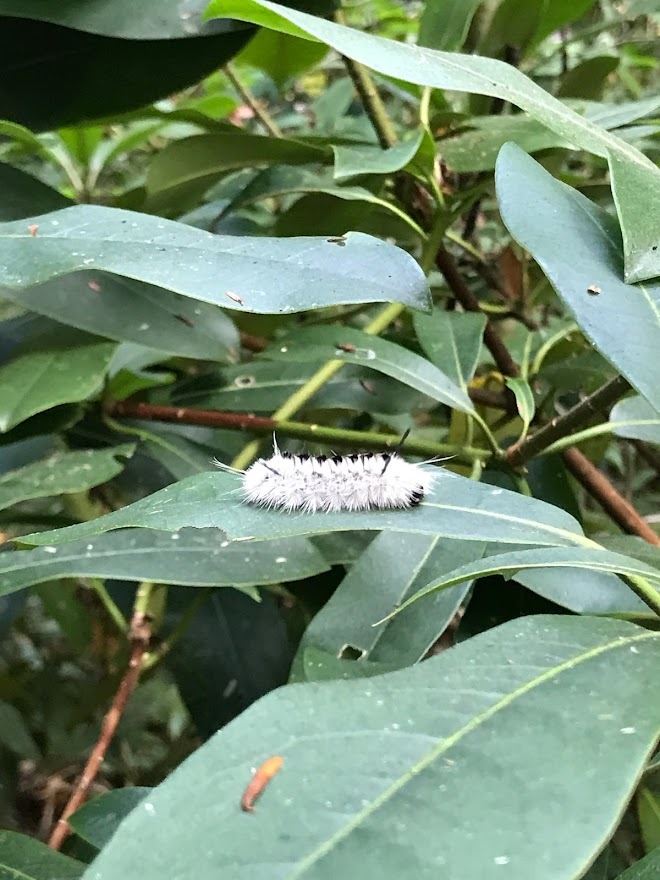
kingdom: Animalia
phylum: Arthropoda
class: Insecta
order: Lepidoptera
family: Erebidae
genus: Lophocampa
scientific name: Lophocampa caryae
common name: Hickory tussock moth
